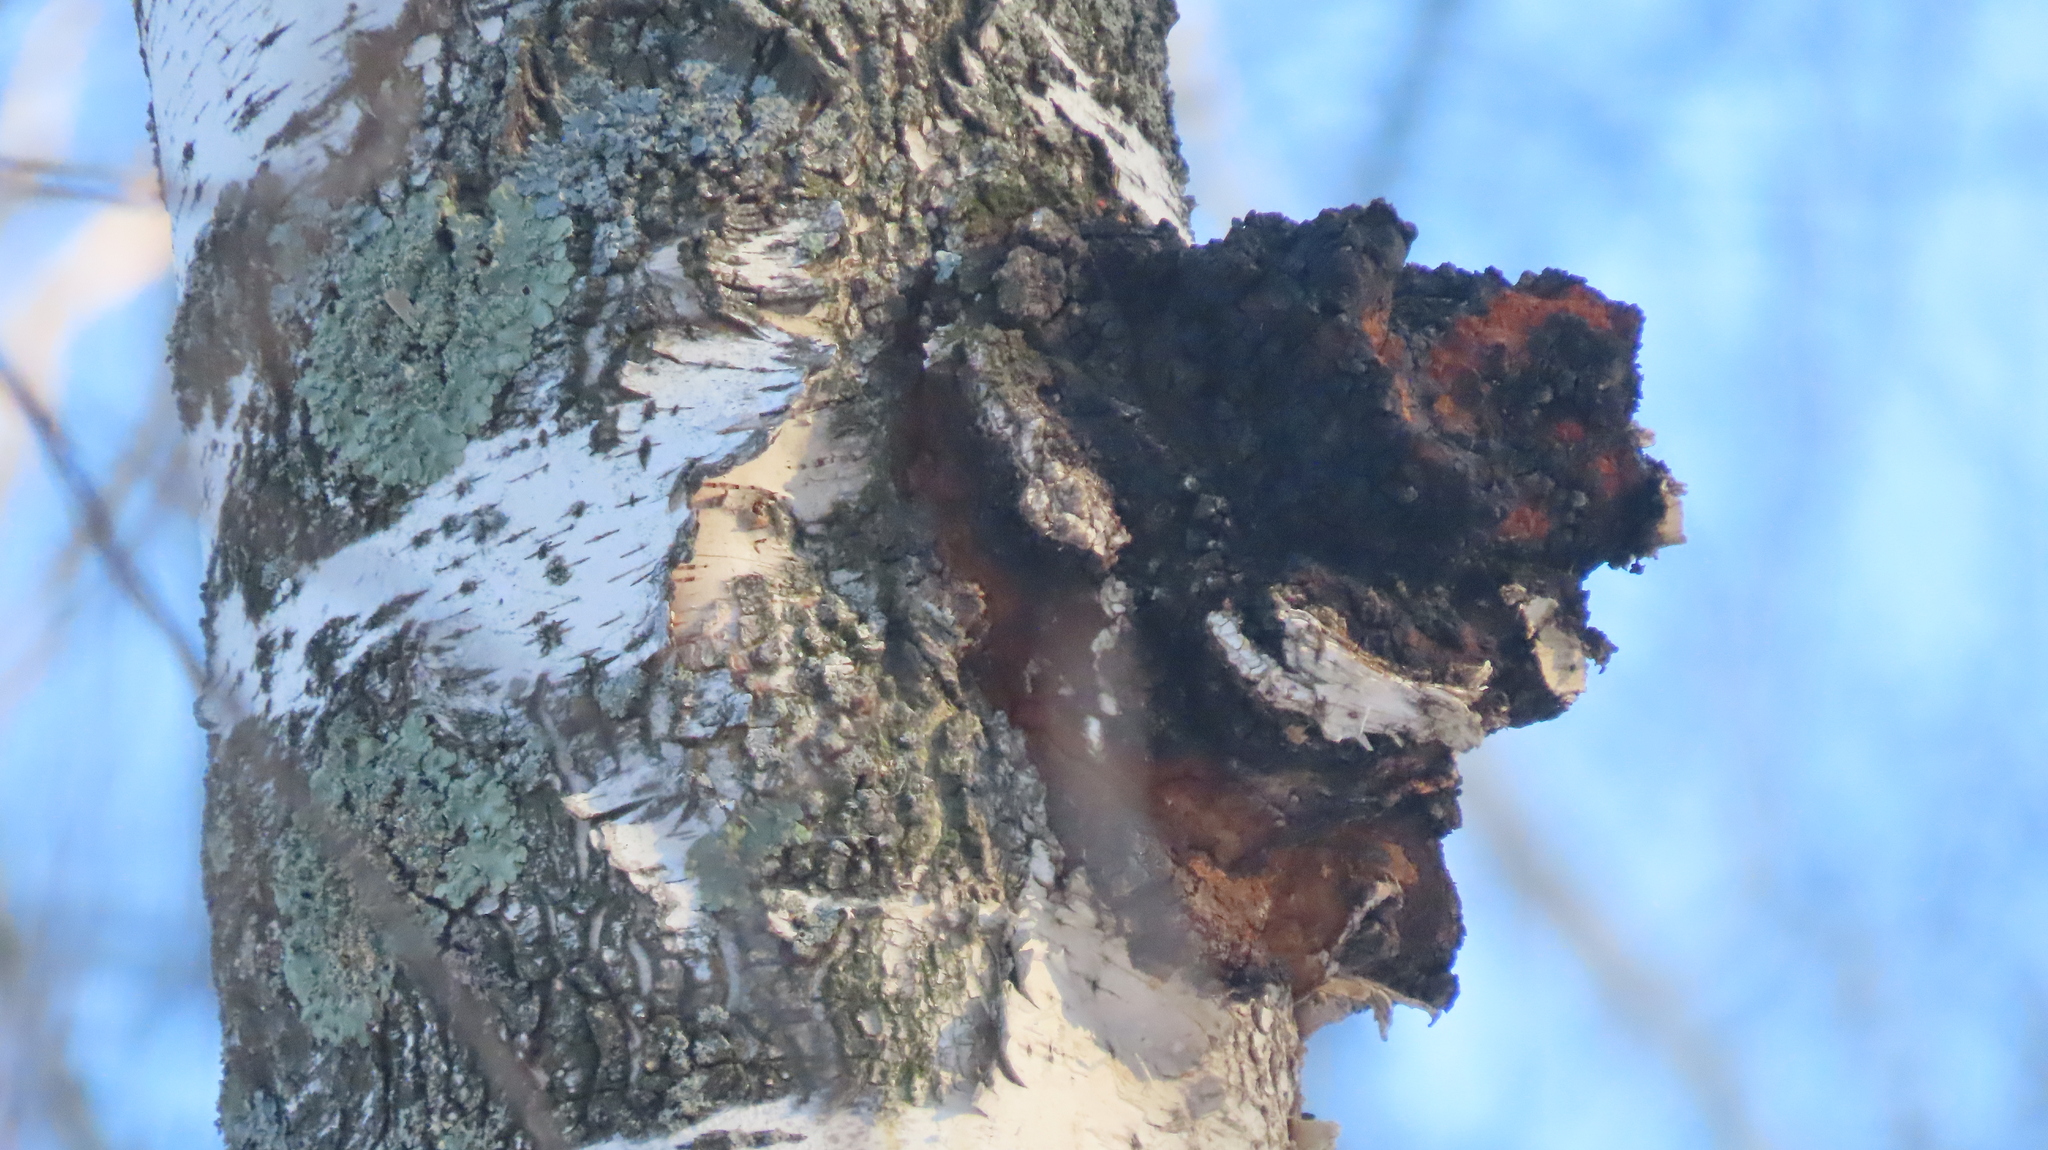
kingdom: Fungi
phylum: Basidiomycota
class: Agaricomycetes
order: Hymenochaetales
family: Hymenochaetaceae
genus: Inonotus
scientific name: Inonotus obliquus
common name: Chaga
